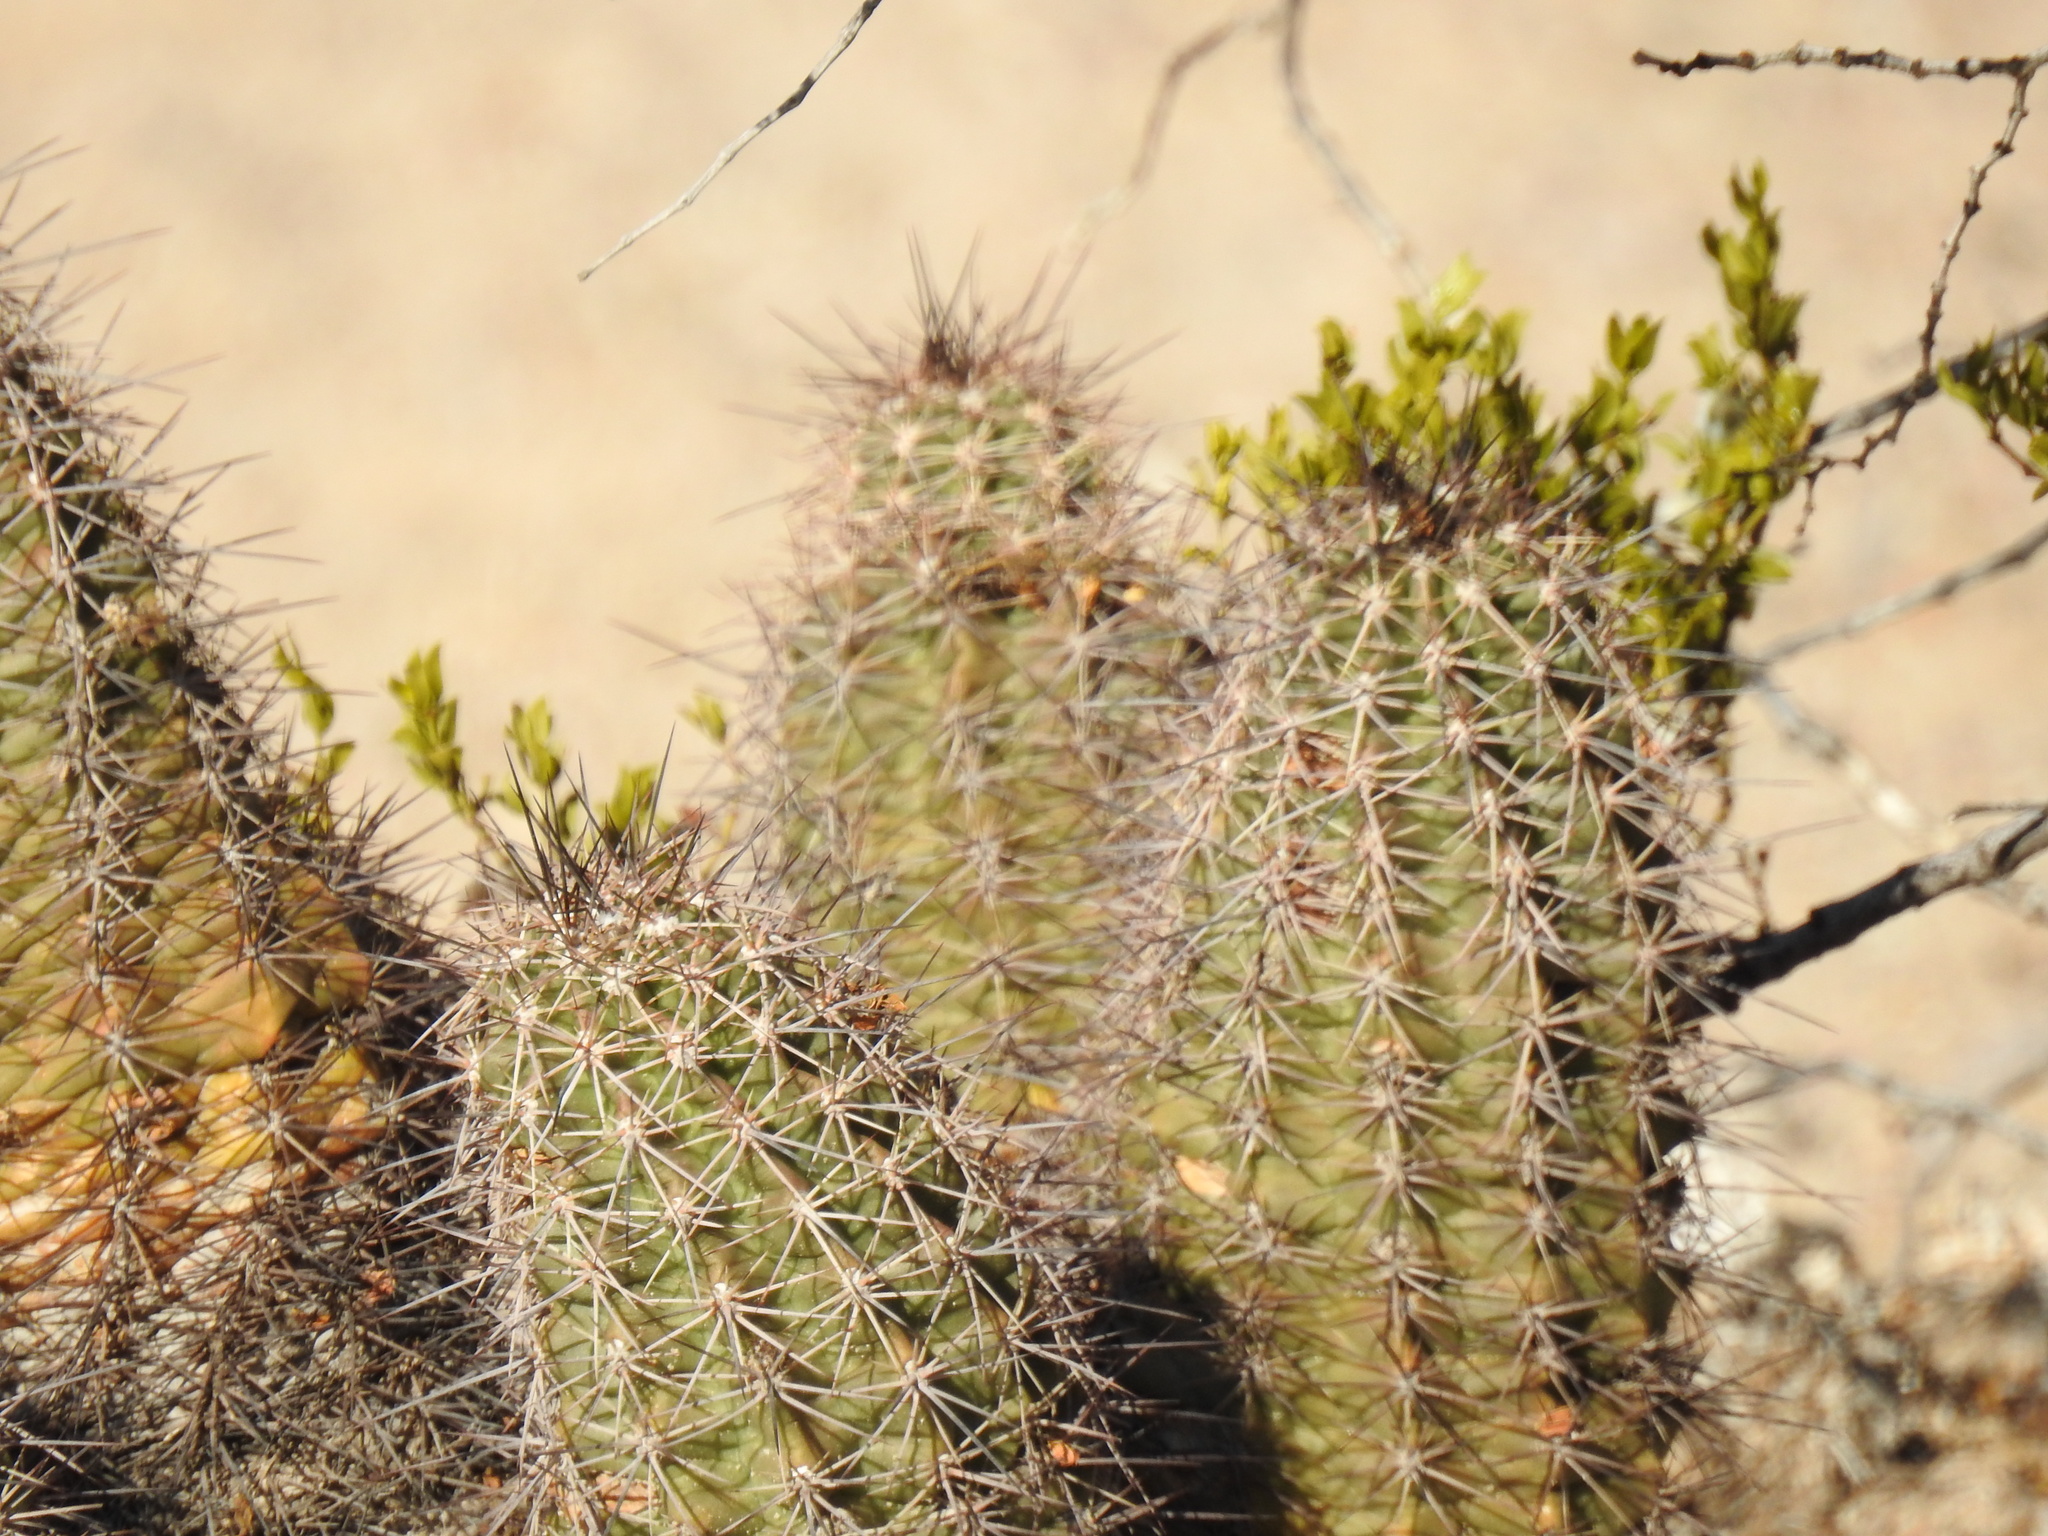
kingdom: Plantae
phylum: Tracheophyta
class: Magnoliopsida
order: Caryophyllales
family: Cactaceae
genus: Echinocereus
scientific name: Echinocereus coccineus
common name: Scarlet hedgehog cactus
